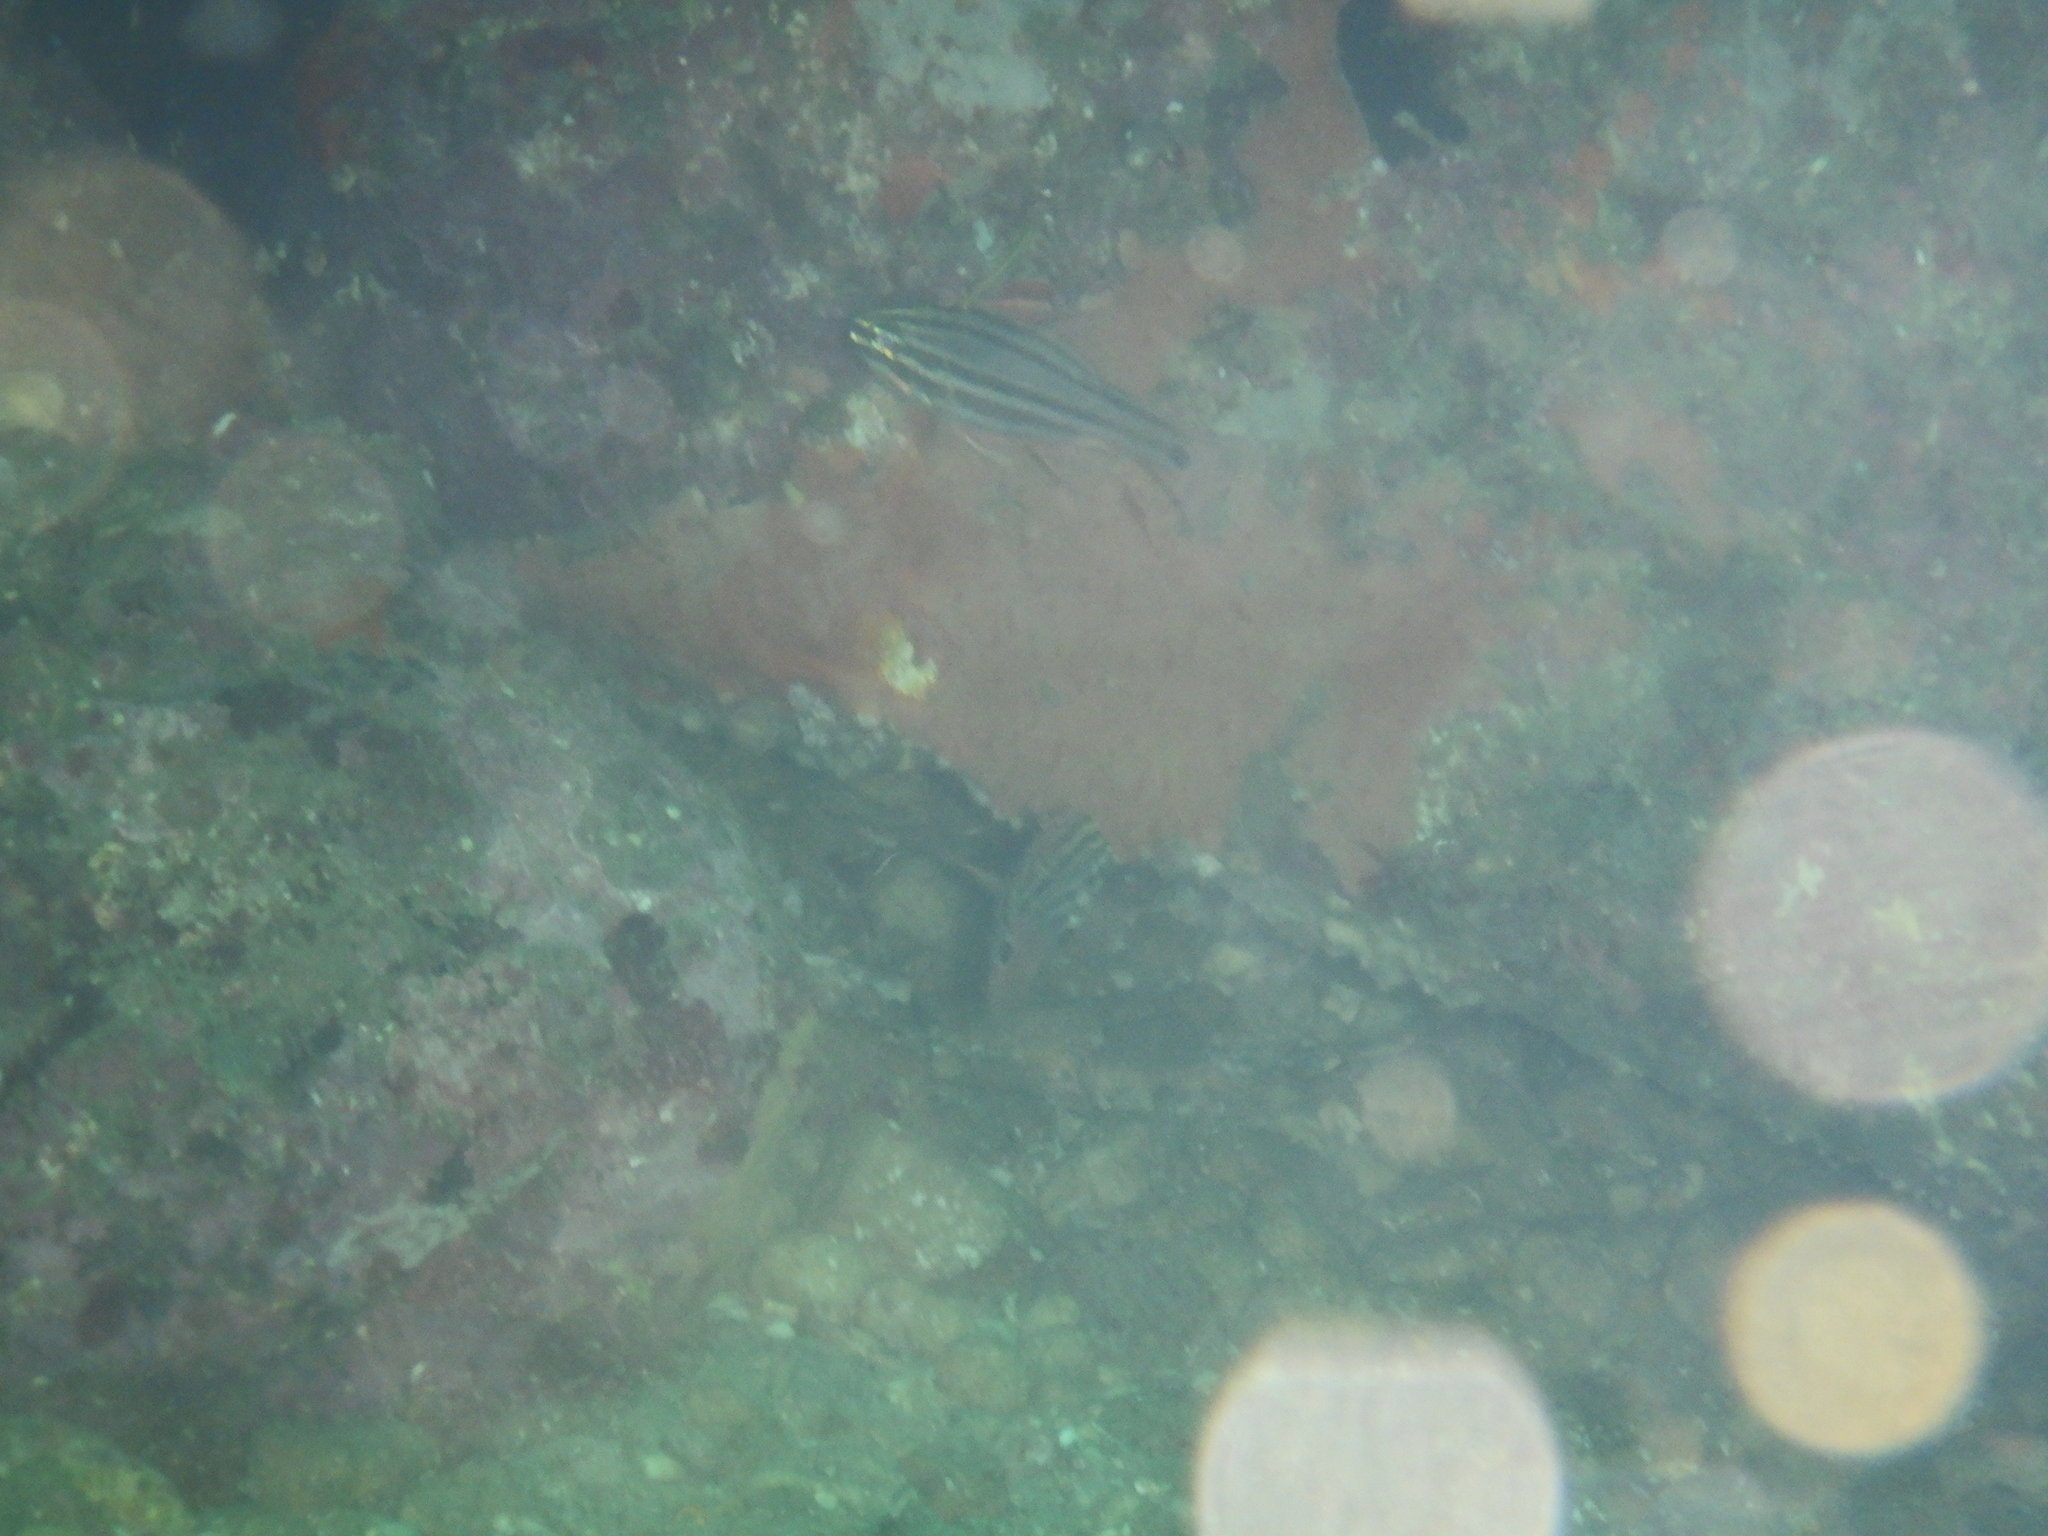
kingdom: Animalia
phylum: Chordata
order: Perciformes
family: Apogonidae
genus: Ostorhinchus
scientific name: Ostorhinchus limenus
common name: Four-banded soldierfish
